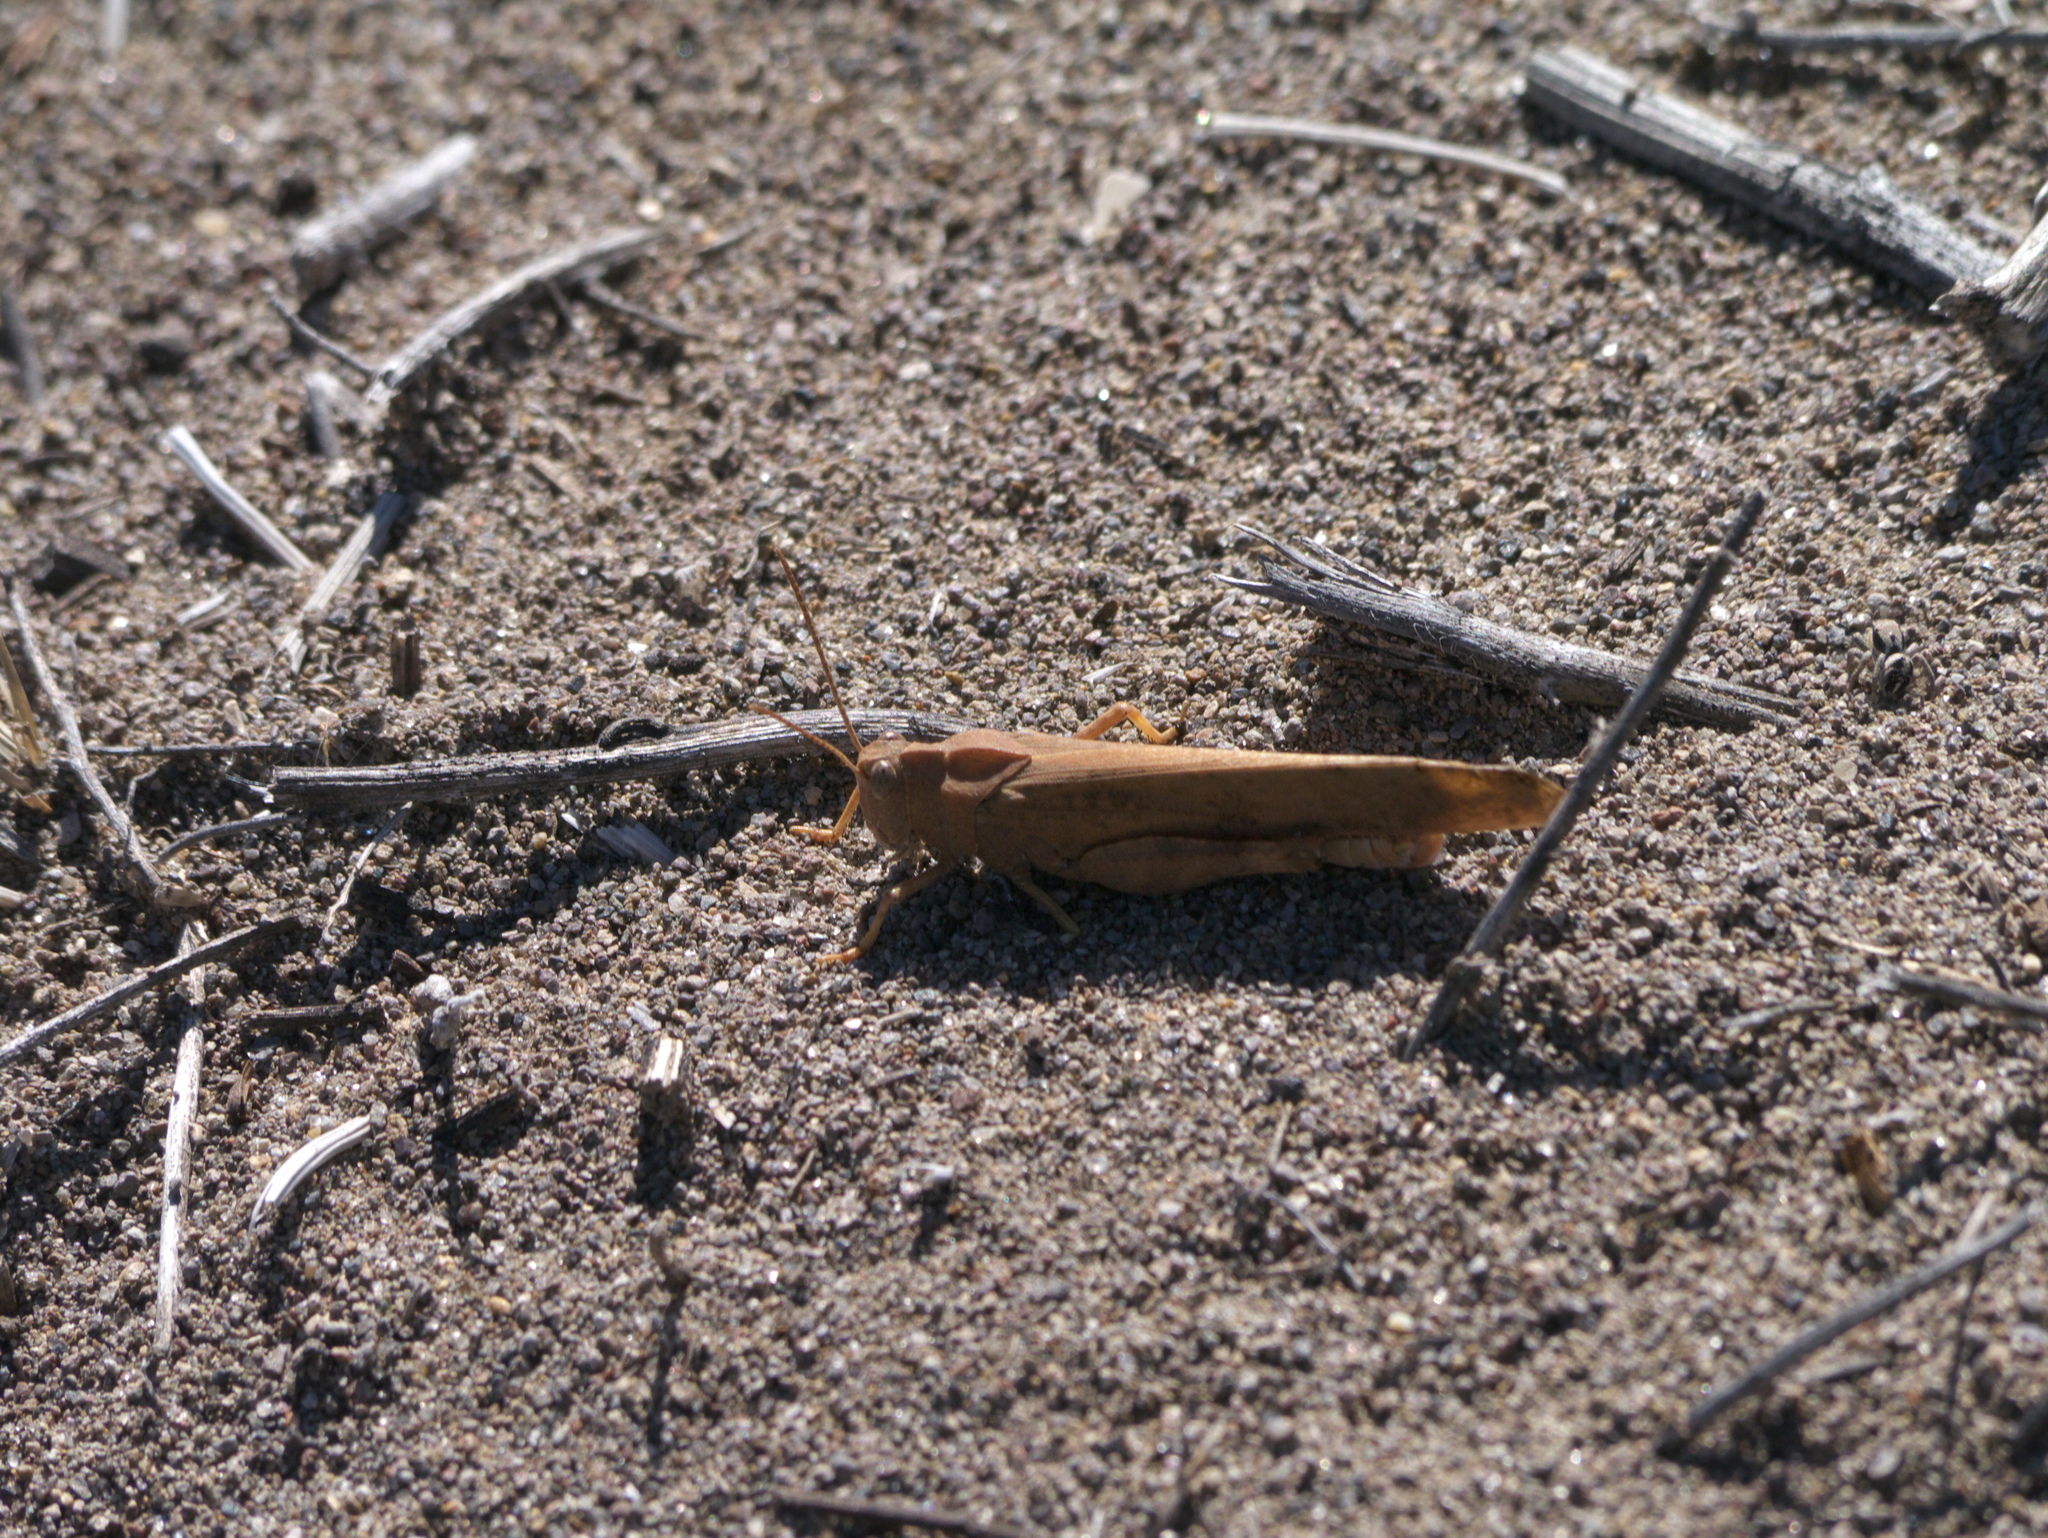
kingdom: Animalia
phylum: Arthropoda
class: Insecta
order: Orthoptera
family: Acrididae
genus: Dissosteira
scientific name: Dissosteira carolina
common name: Carolina grasshopper
